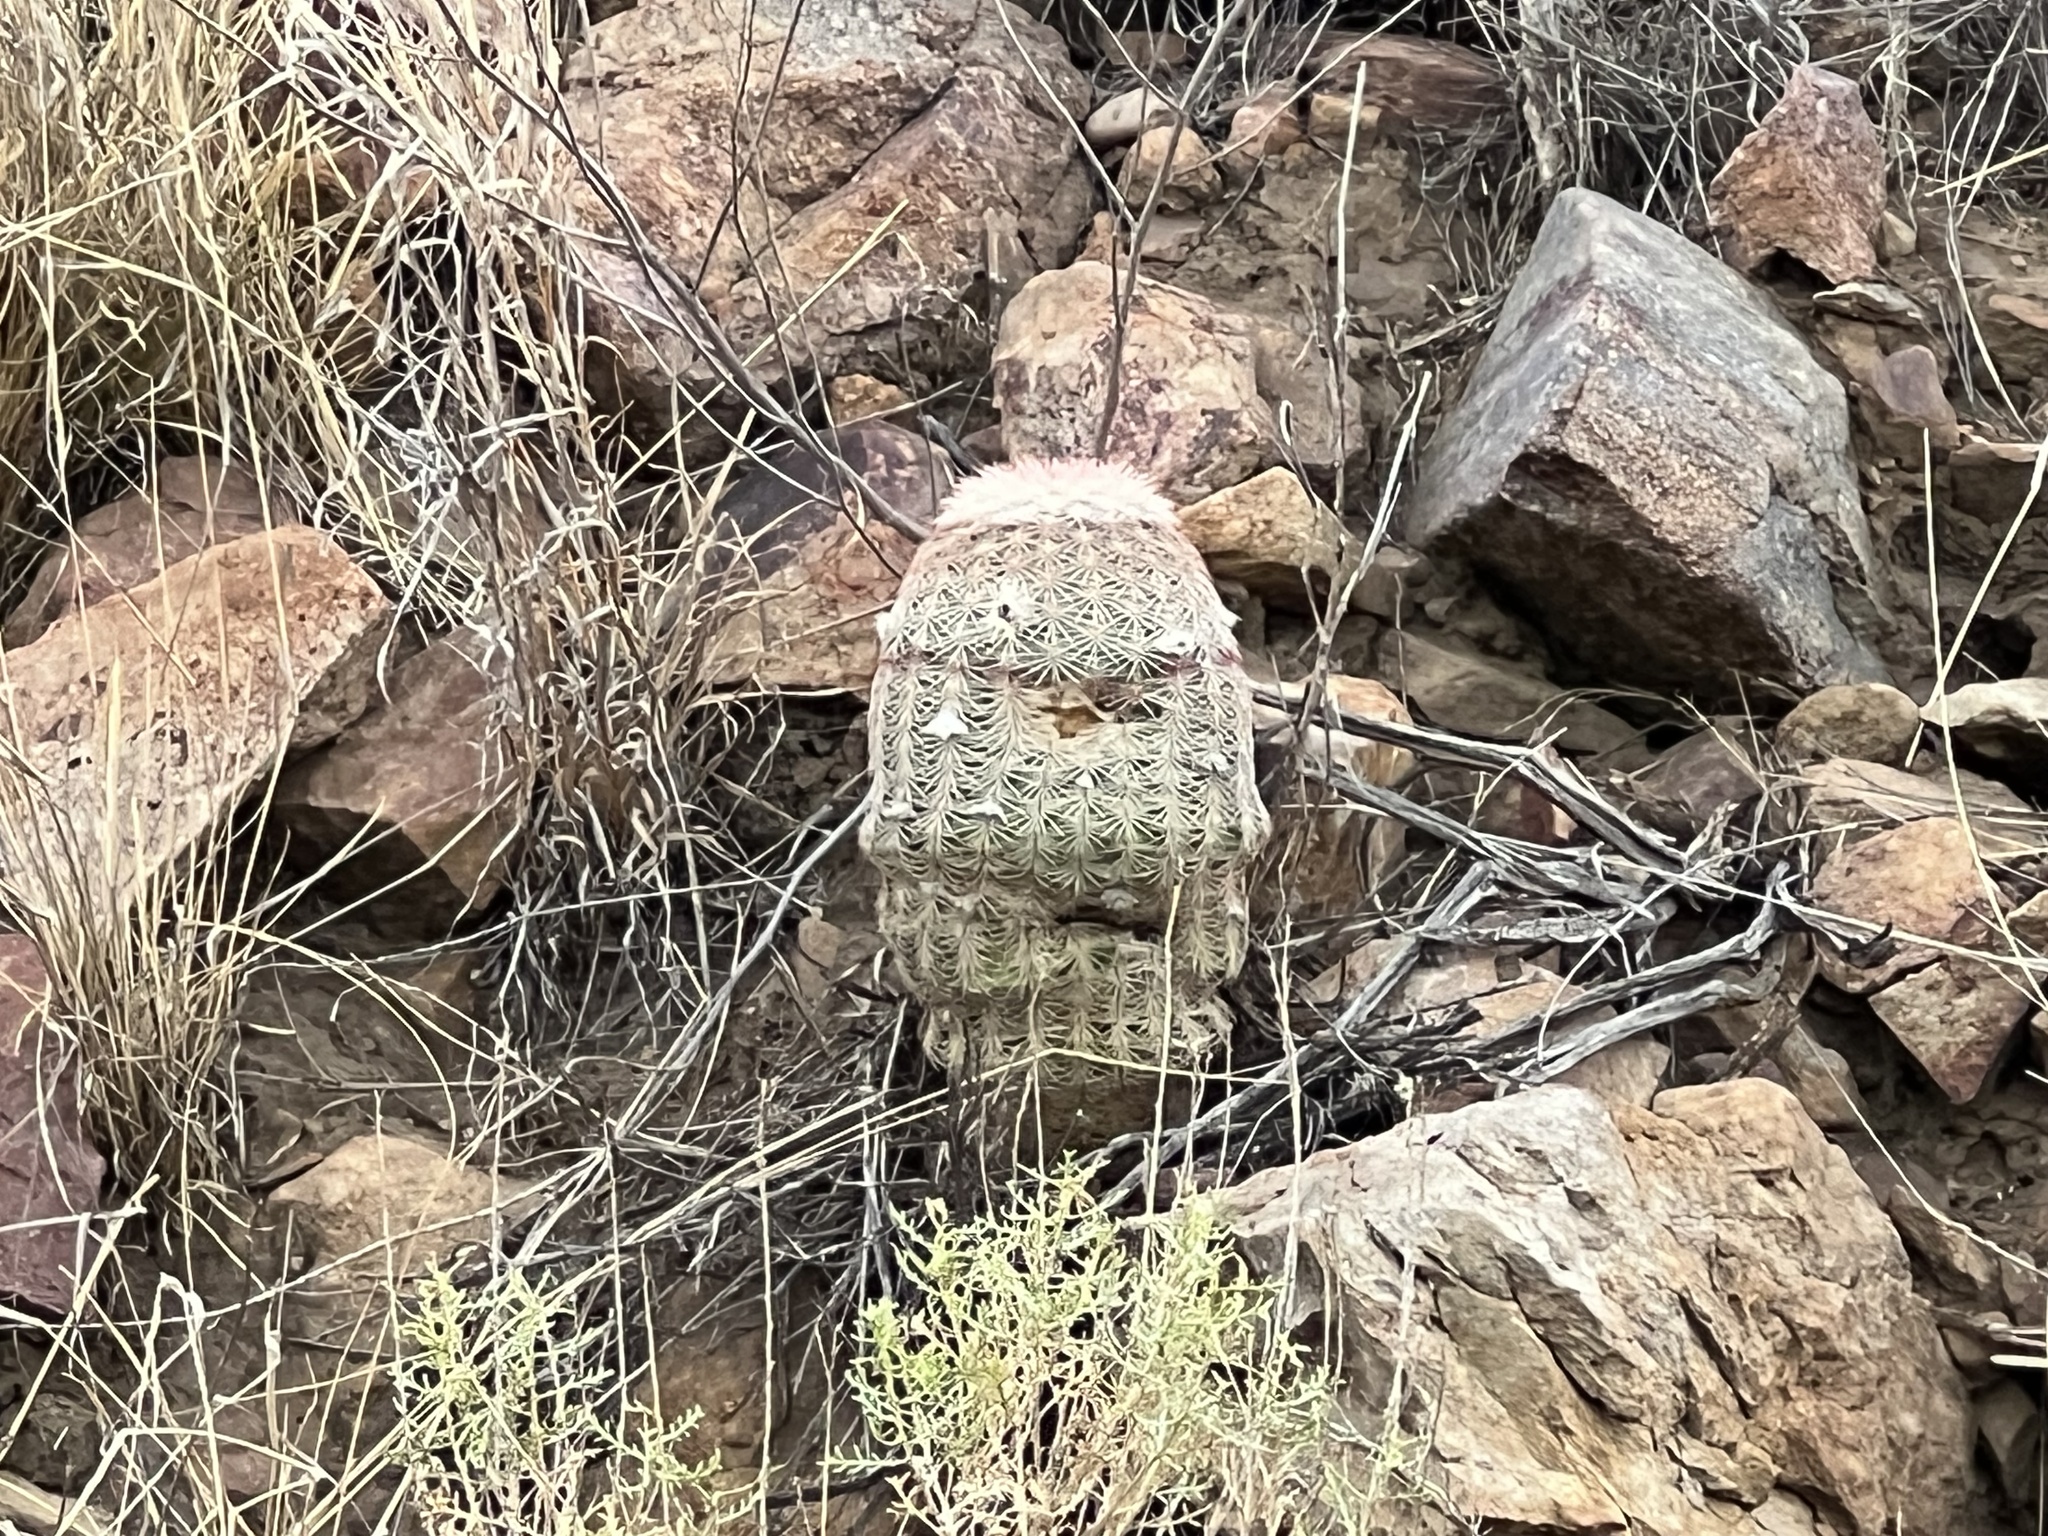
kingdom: Plantae
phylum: Tracheophyta
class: Magnoliopsida
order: Caryophyllales
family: Cactaceae
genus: Echinocereus
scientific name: Echinocereus rigidissimus
